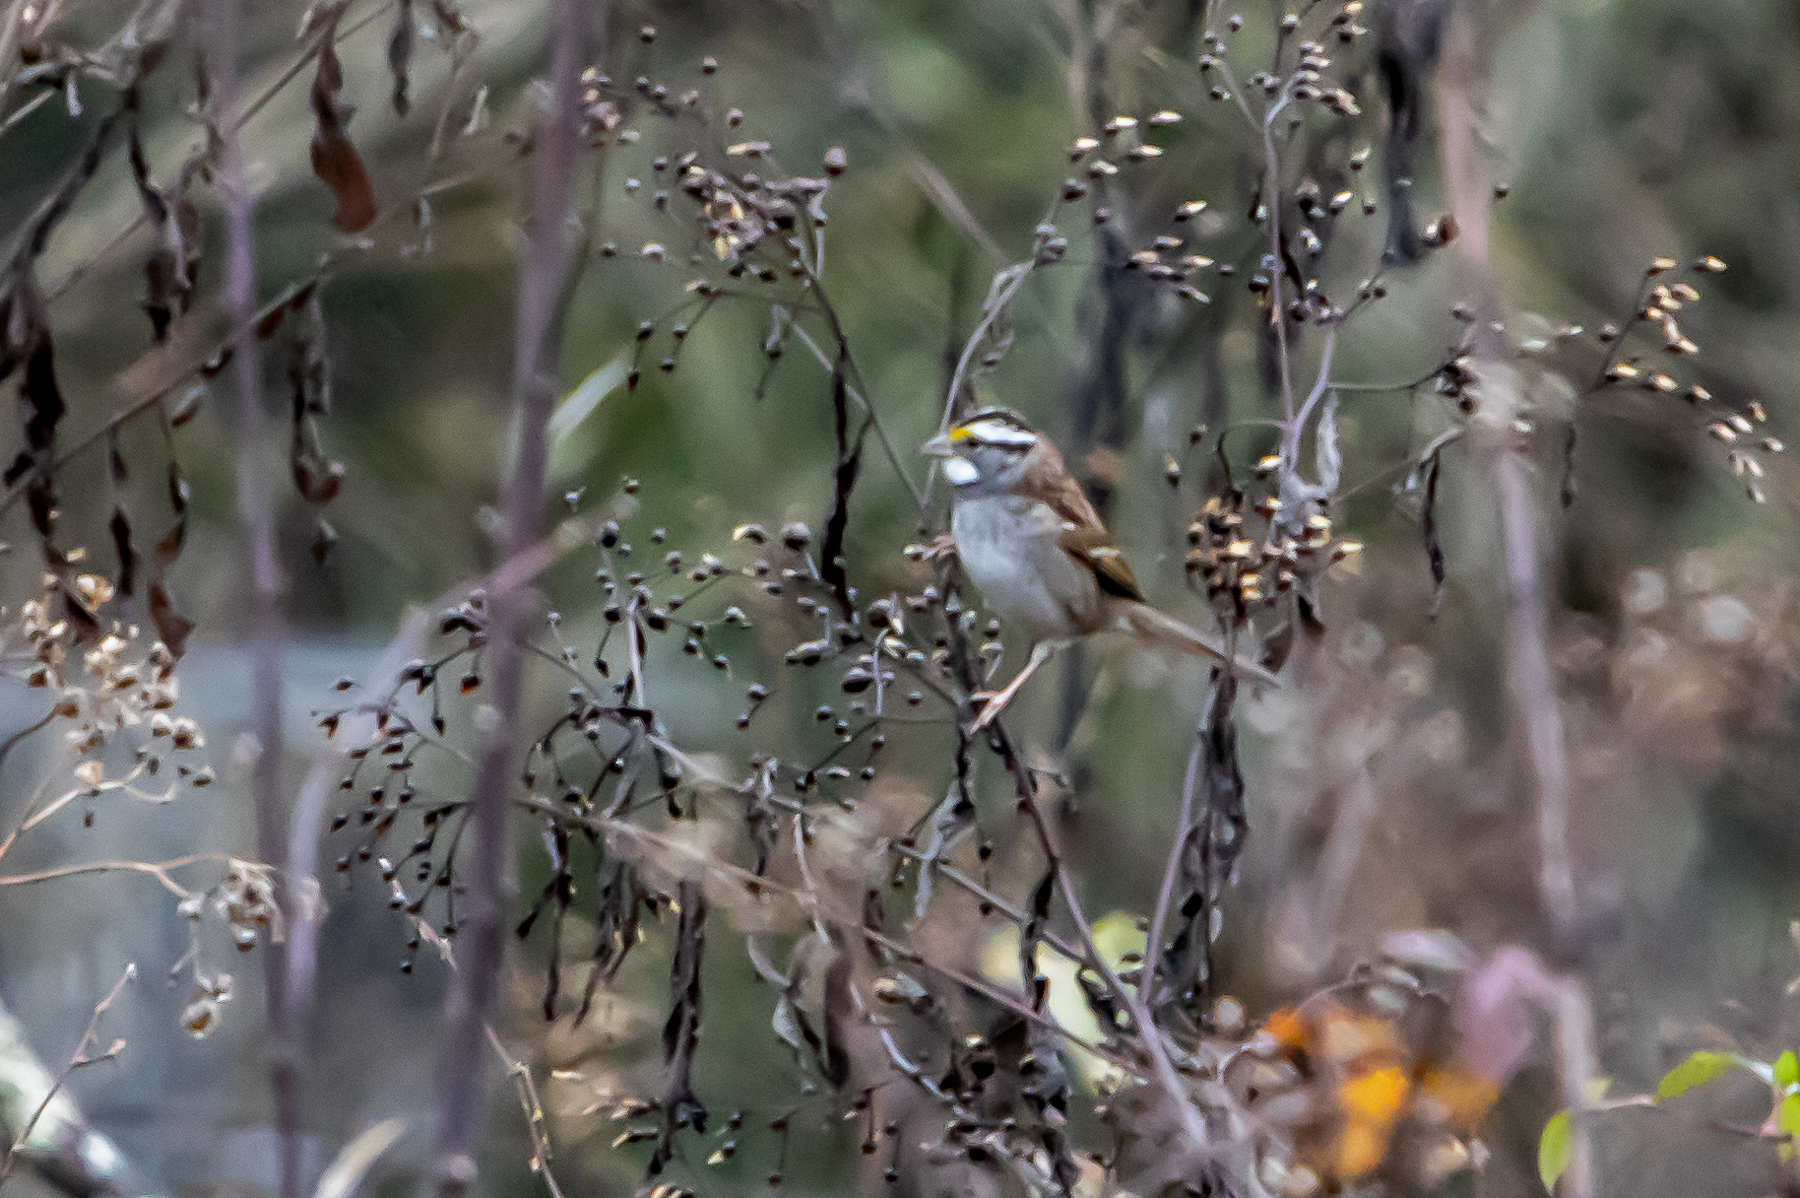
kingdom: Animalia
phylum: Chordata
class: Aves
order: Passeriformes
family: Passerellidae
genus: Zonotrichia
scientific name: Zonotrichia albicollis
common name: White-throated sparrow
